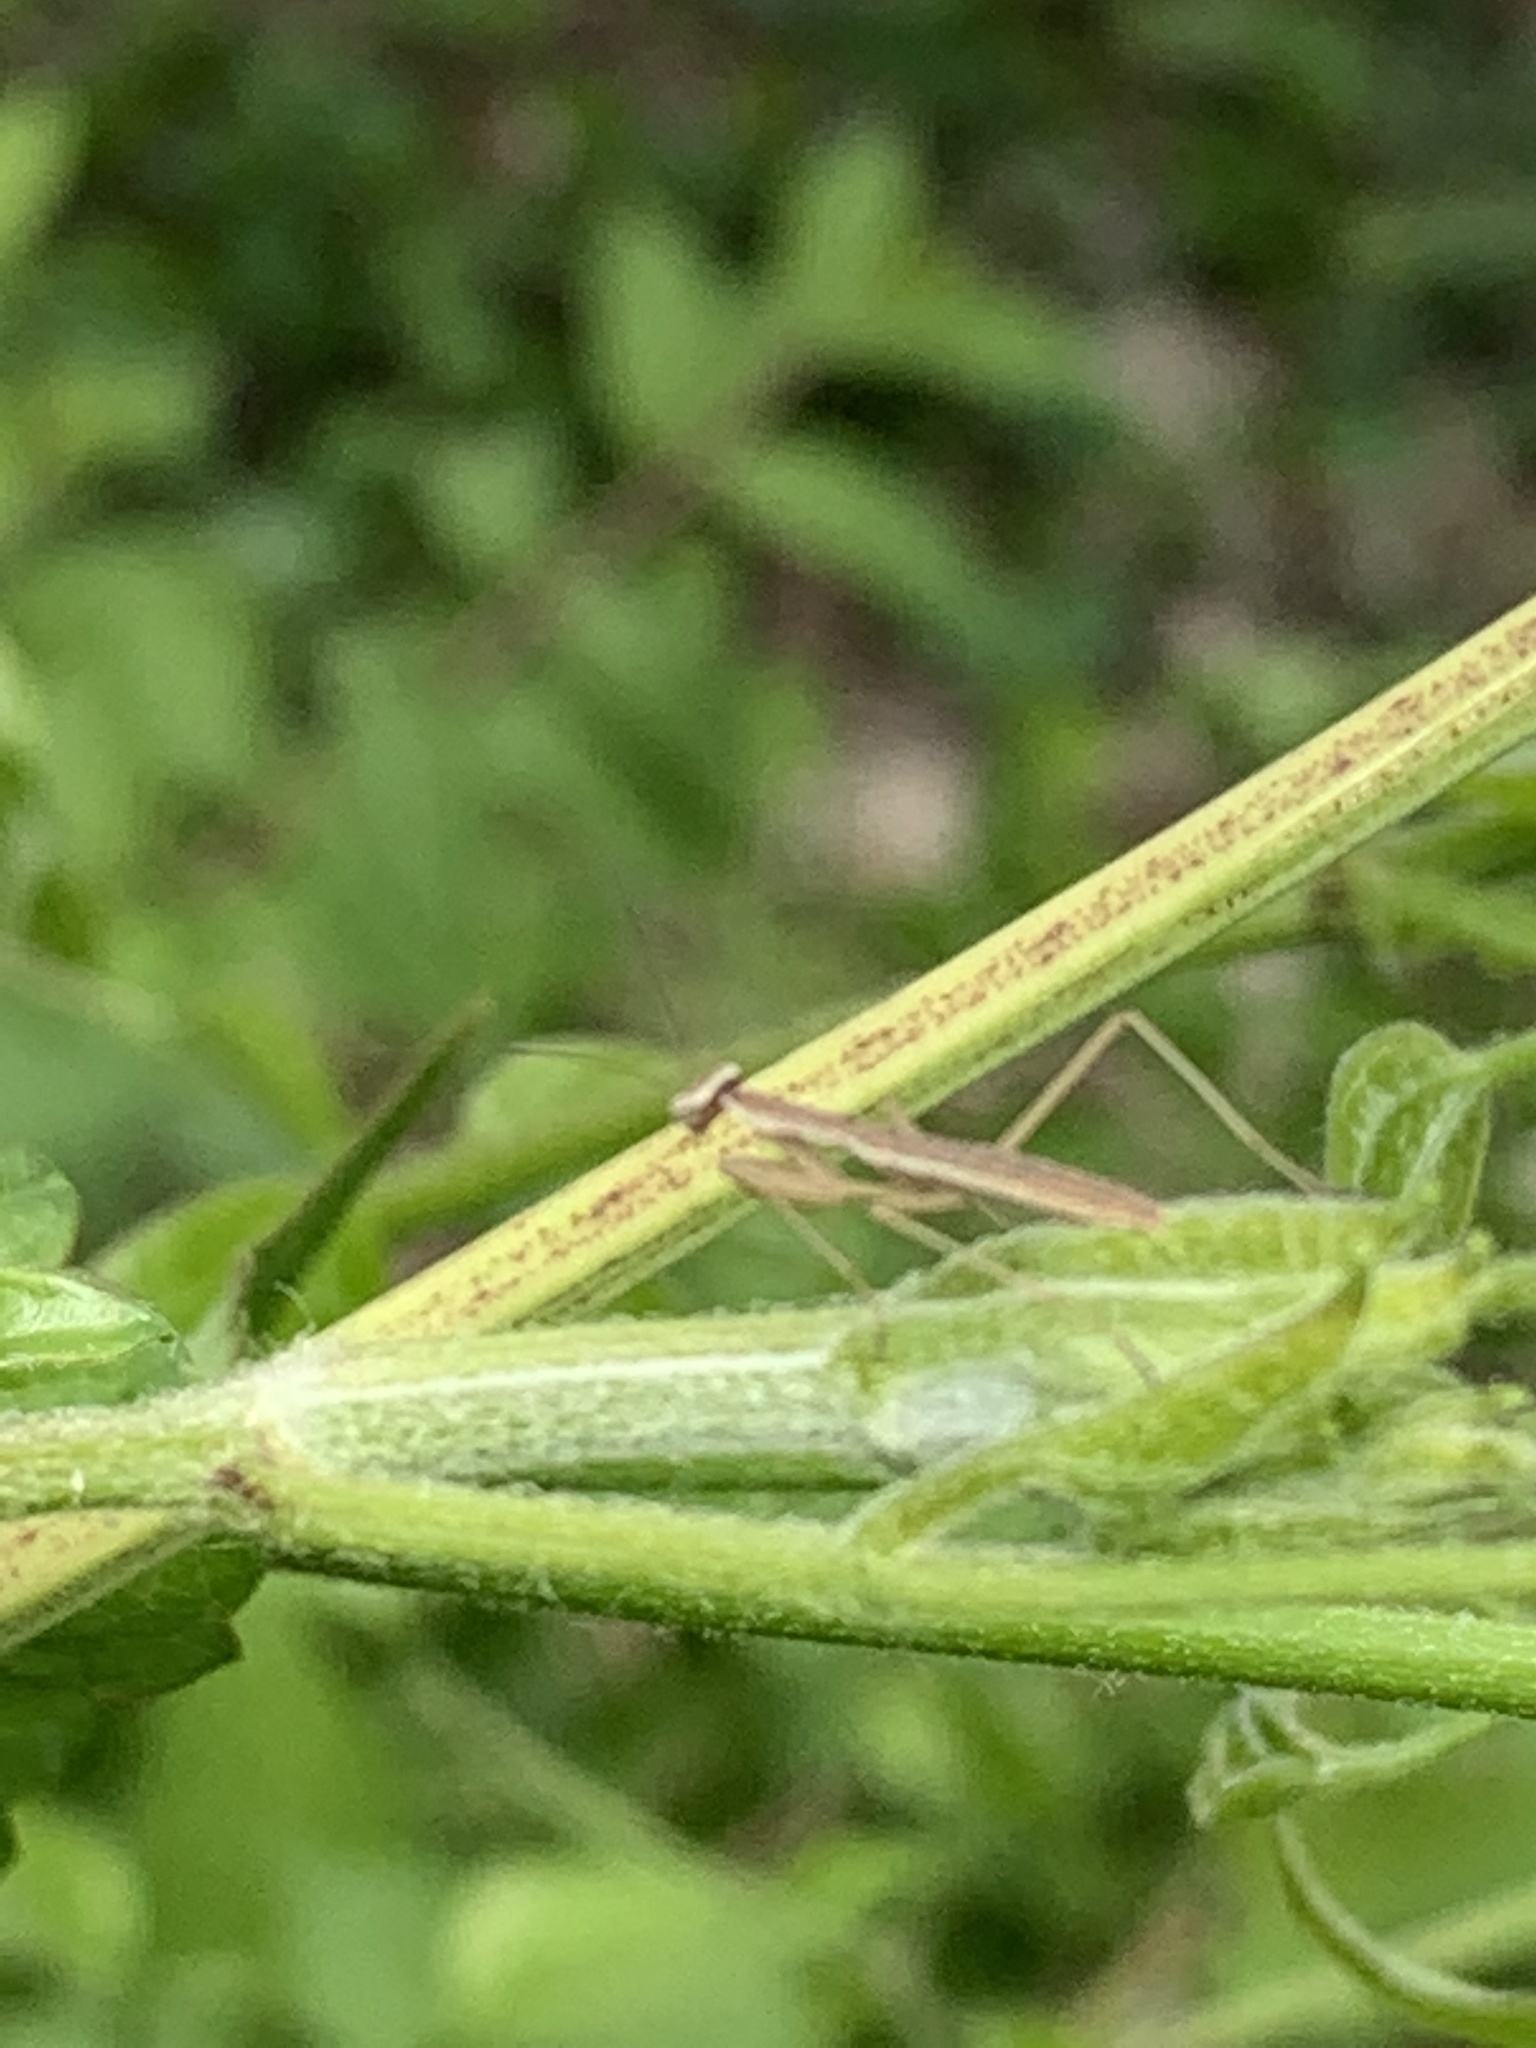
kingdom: Animalia
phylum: Arthropoda
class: Insecta
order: Mantodea
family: Mantidae
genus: Tenodera
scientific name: Tenodera sinensis
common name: Chinese mantis
